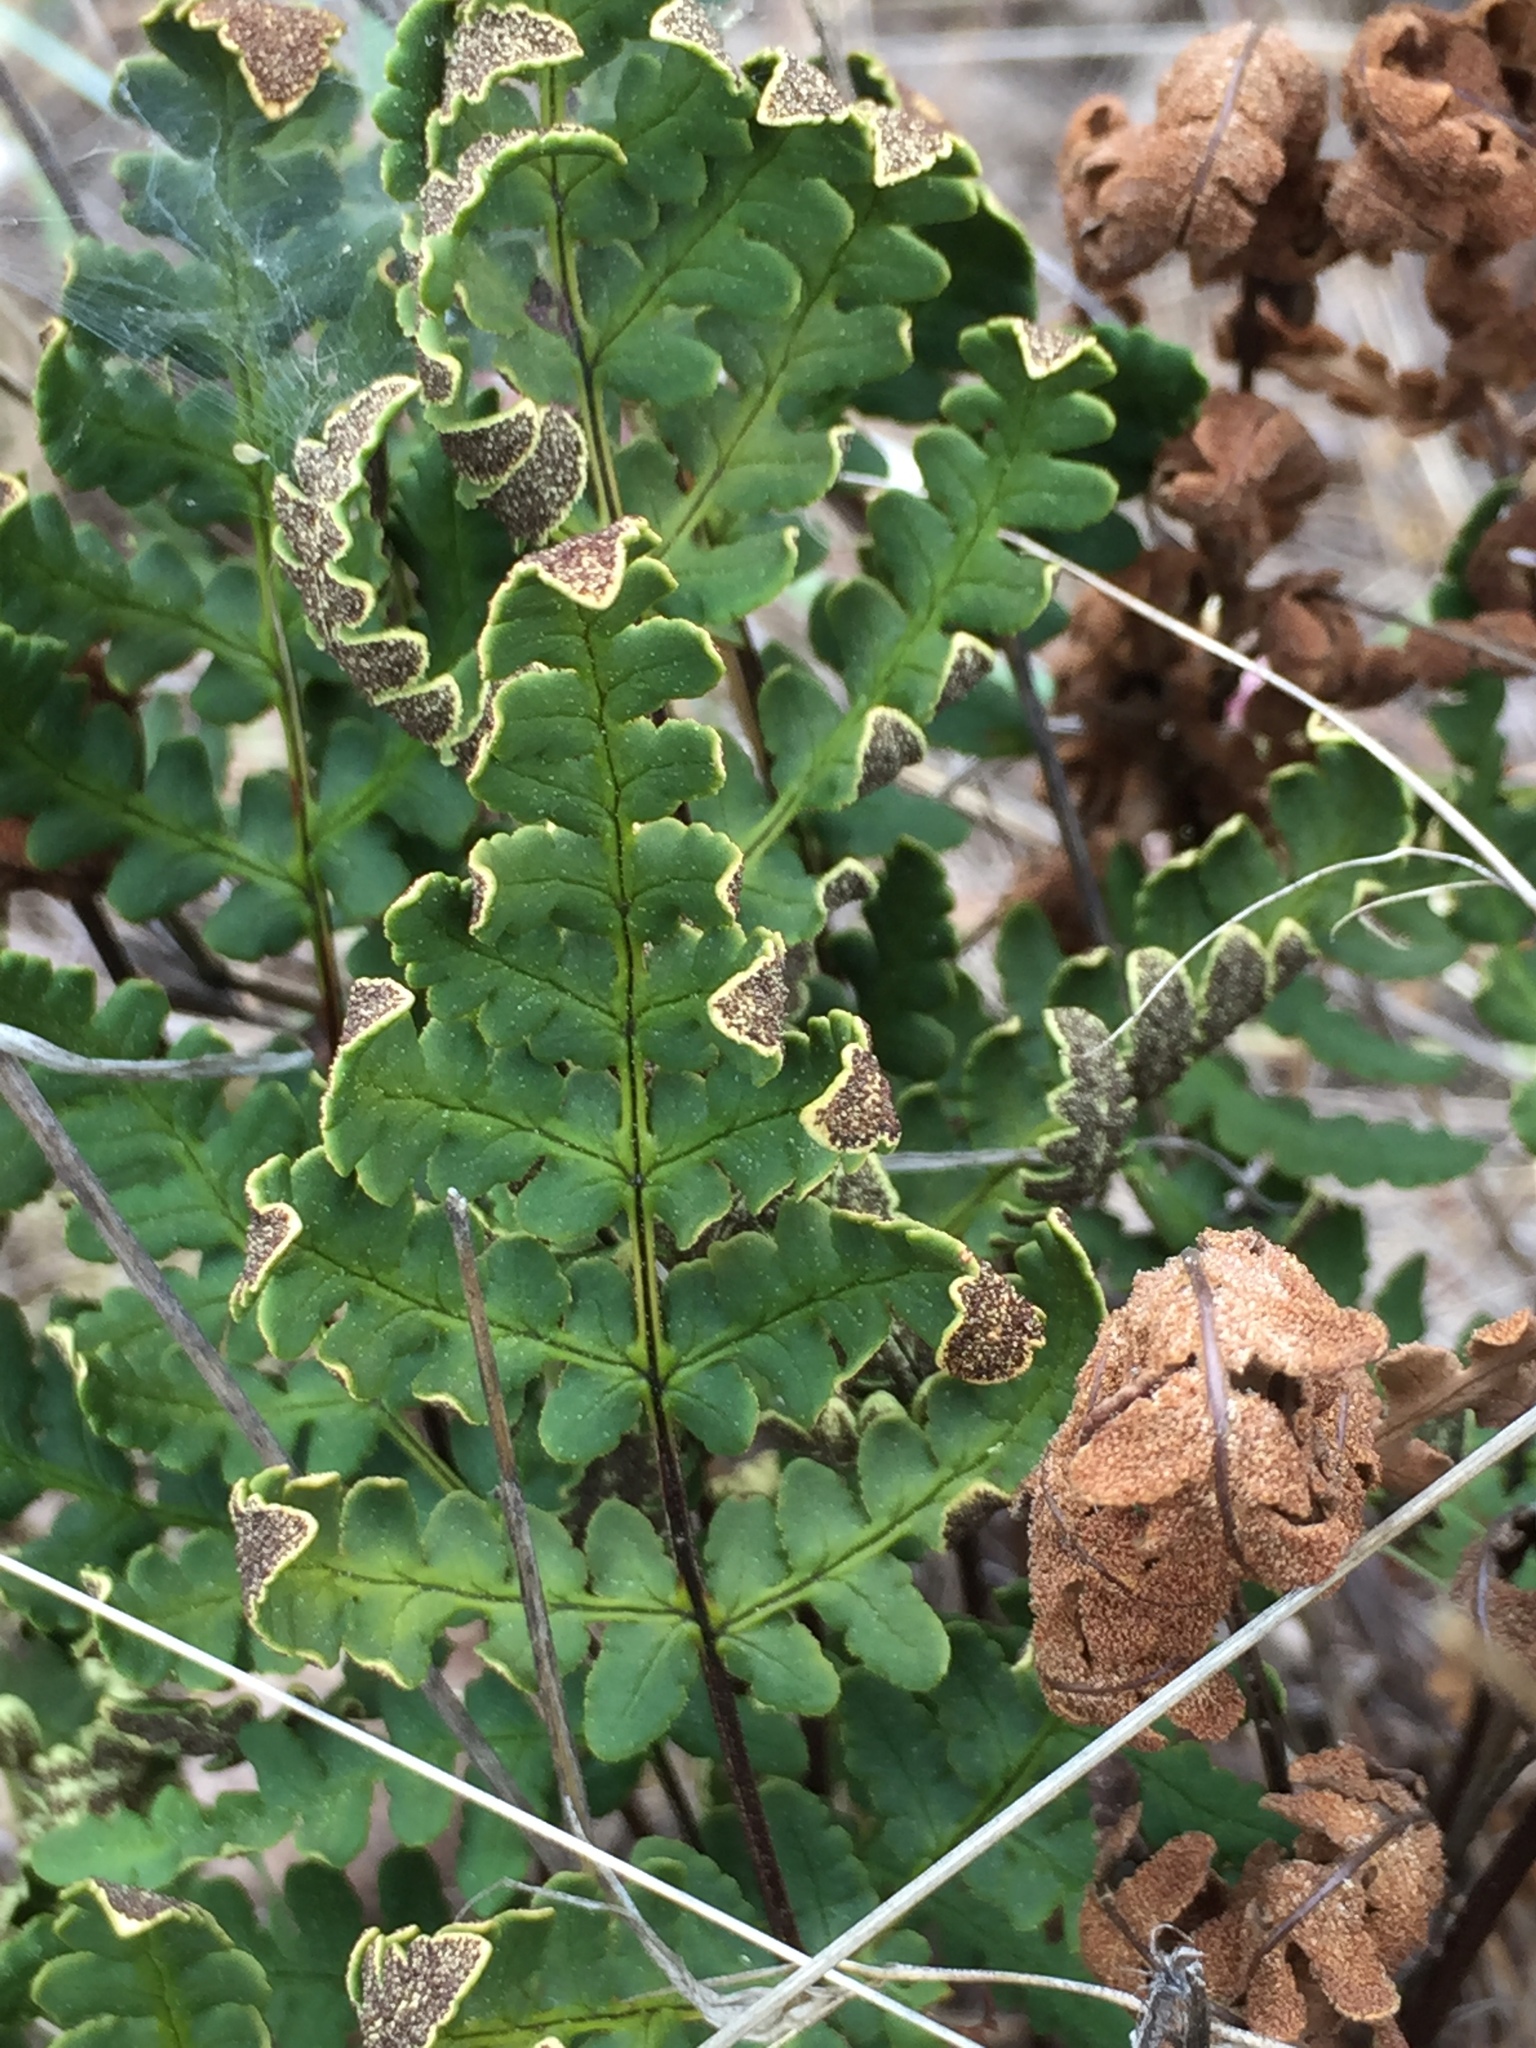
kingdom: Plantae
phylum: Tracheophyta
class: Polypodiopsida
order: Polypodiales
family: Pteridaceae
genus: Pentagramma
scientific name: Pentagramma triangularis
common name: Gold fern
